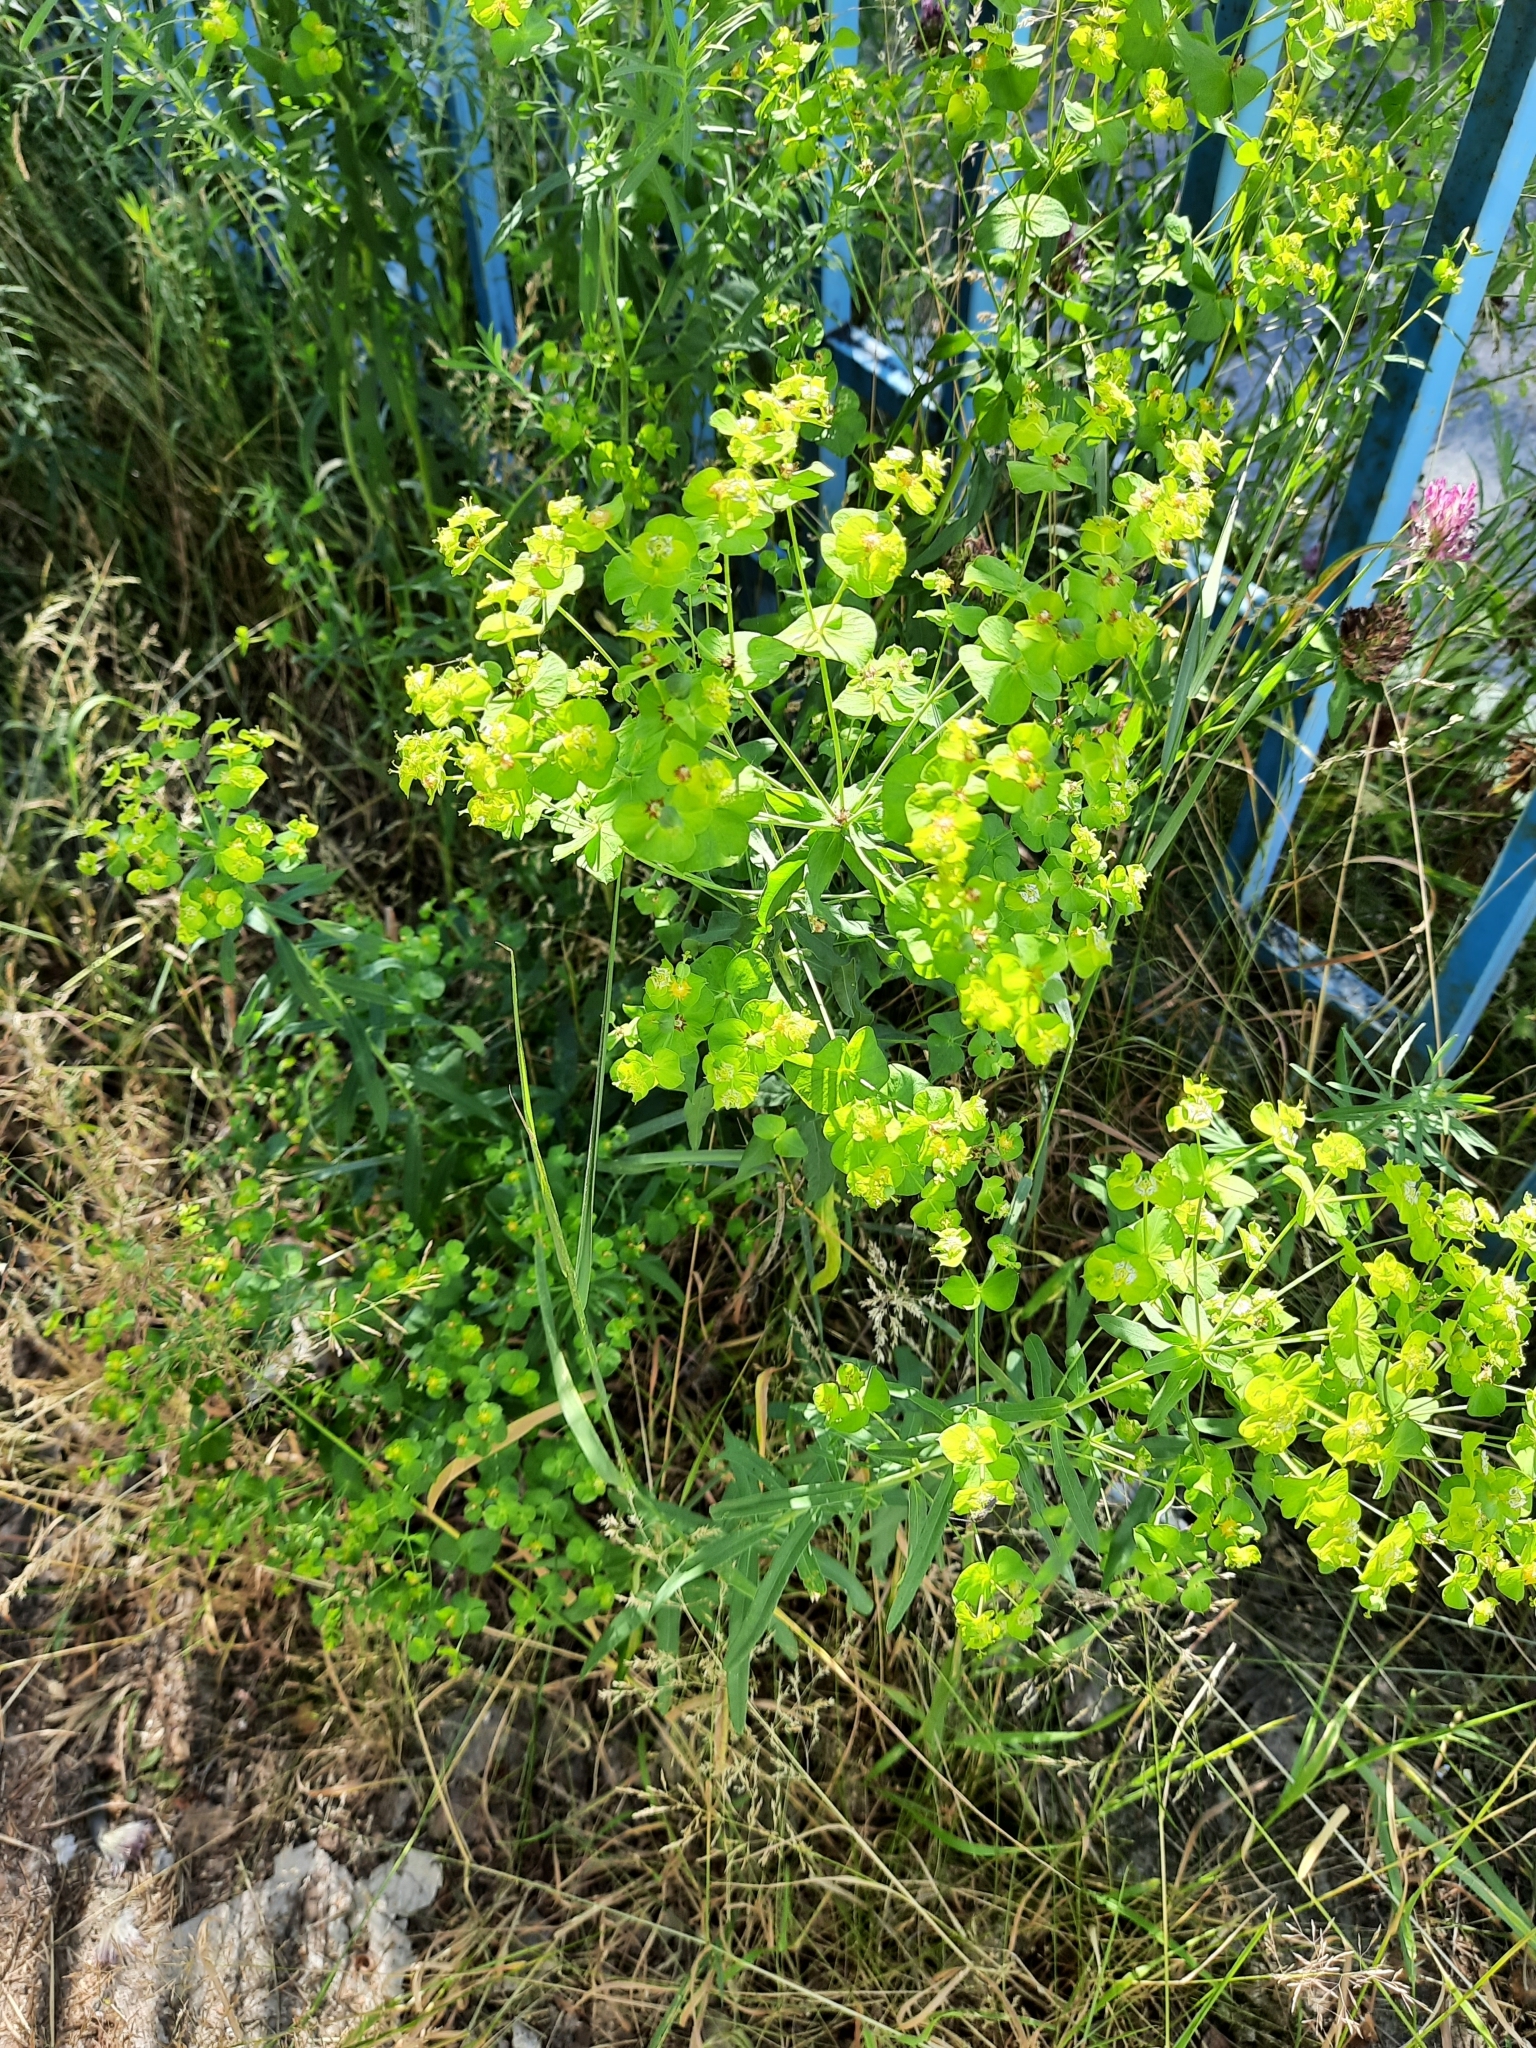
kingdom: Plantae
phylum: Tracheophyta
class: Magnoliopsida
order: Malpighiales
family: Euphorbiaceae
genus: Euphorbia
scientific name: Euphorbia virgata
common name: Leafy spurge
